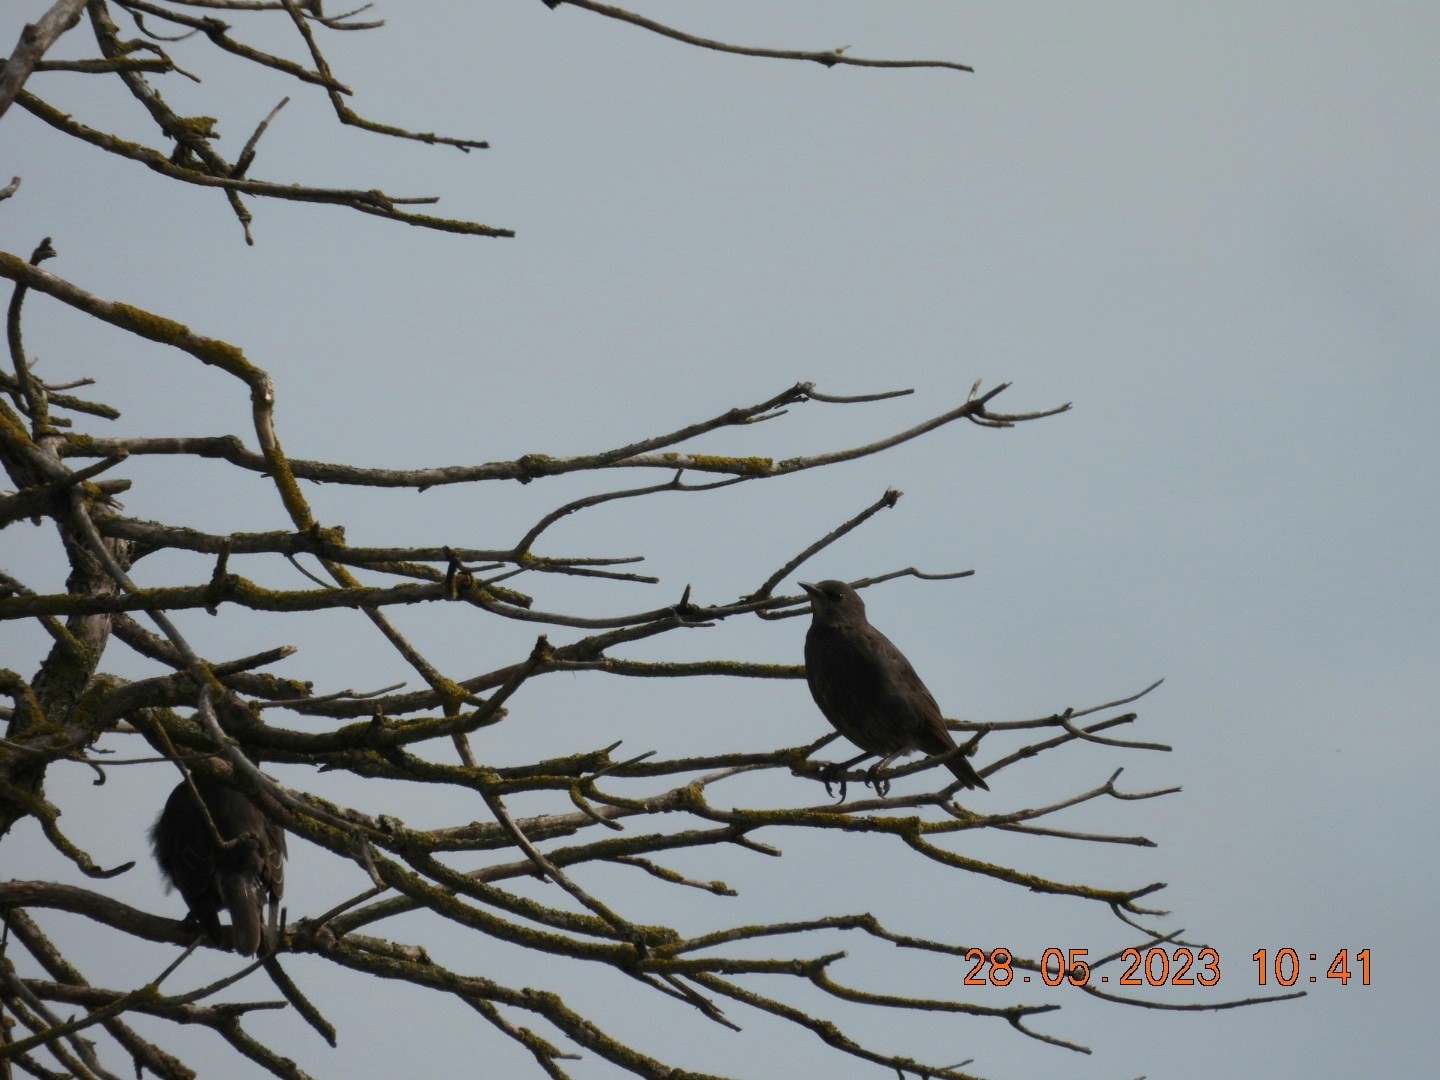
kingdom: Animalia
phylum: Chordata
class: Aves
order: Passeriformes
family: Sturnidae
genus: Sturnus
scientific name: Sturnus vulgaris
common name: Common starling
